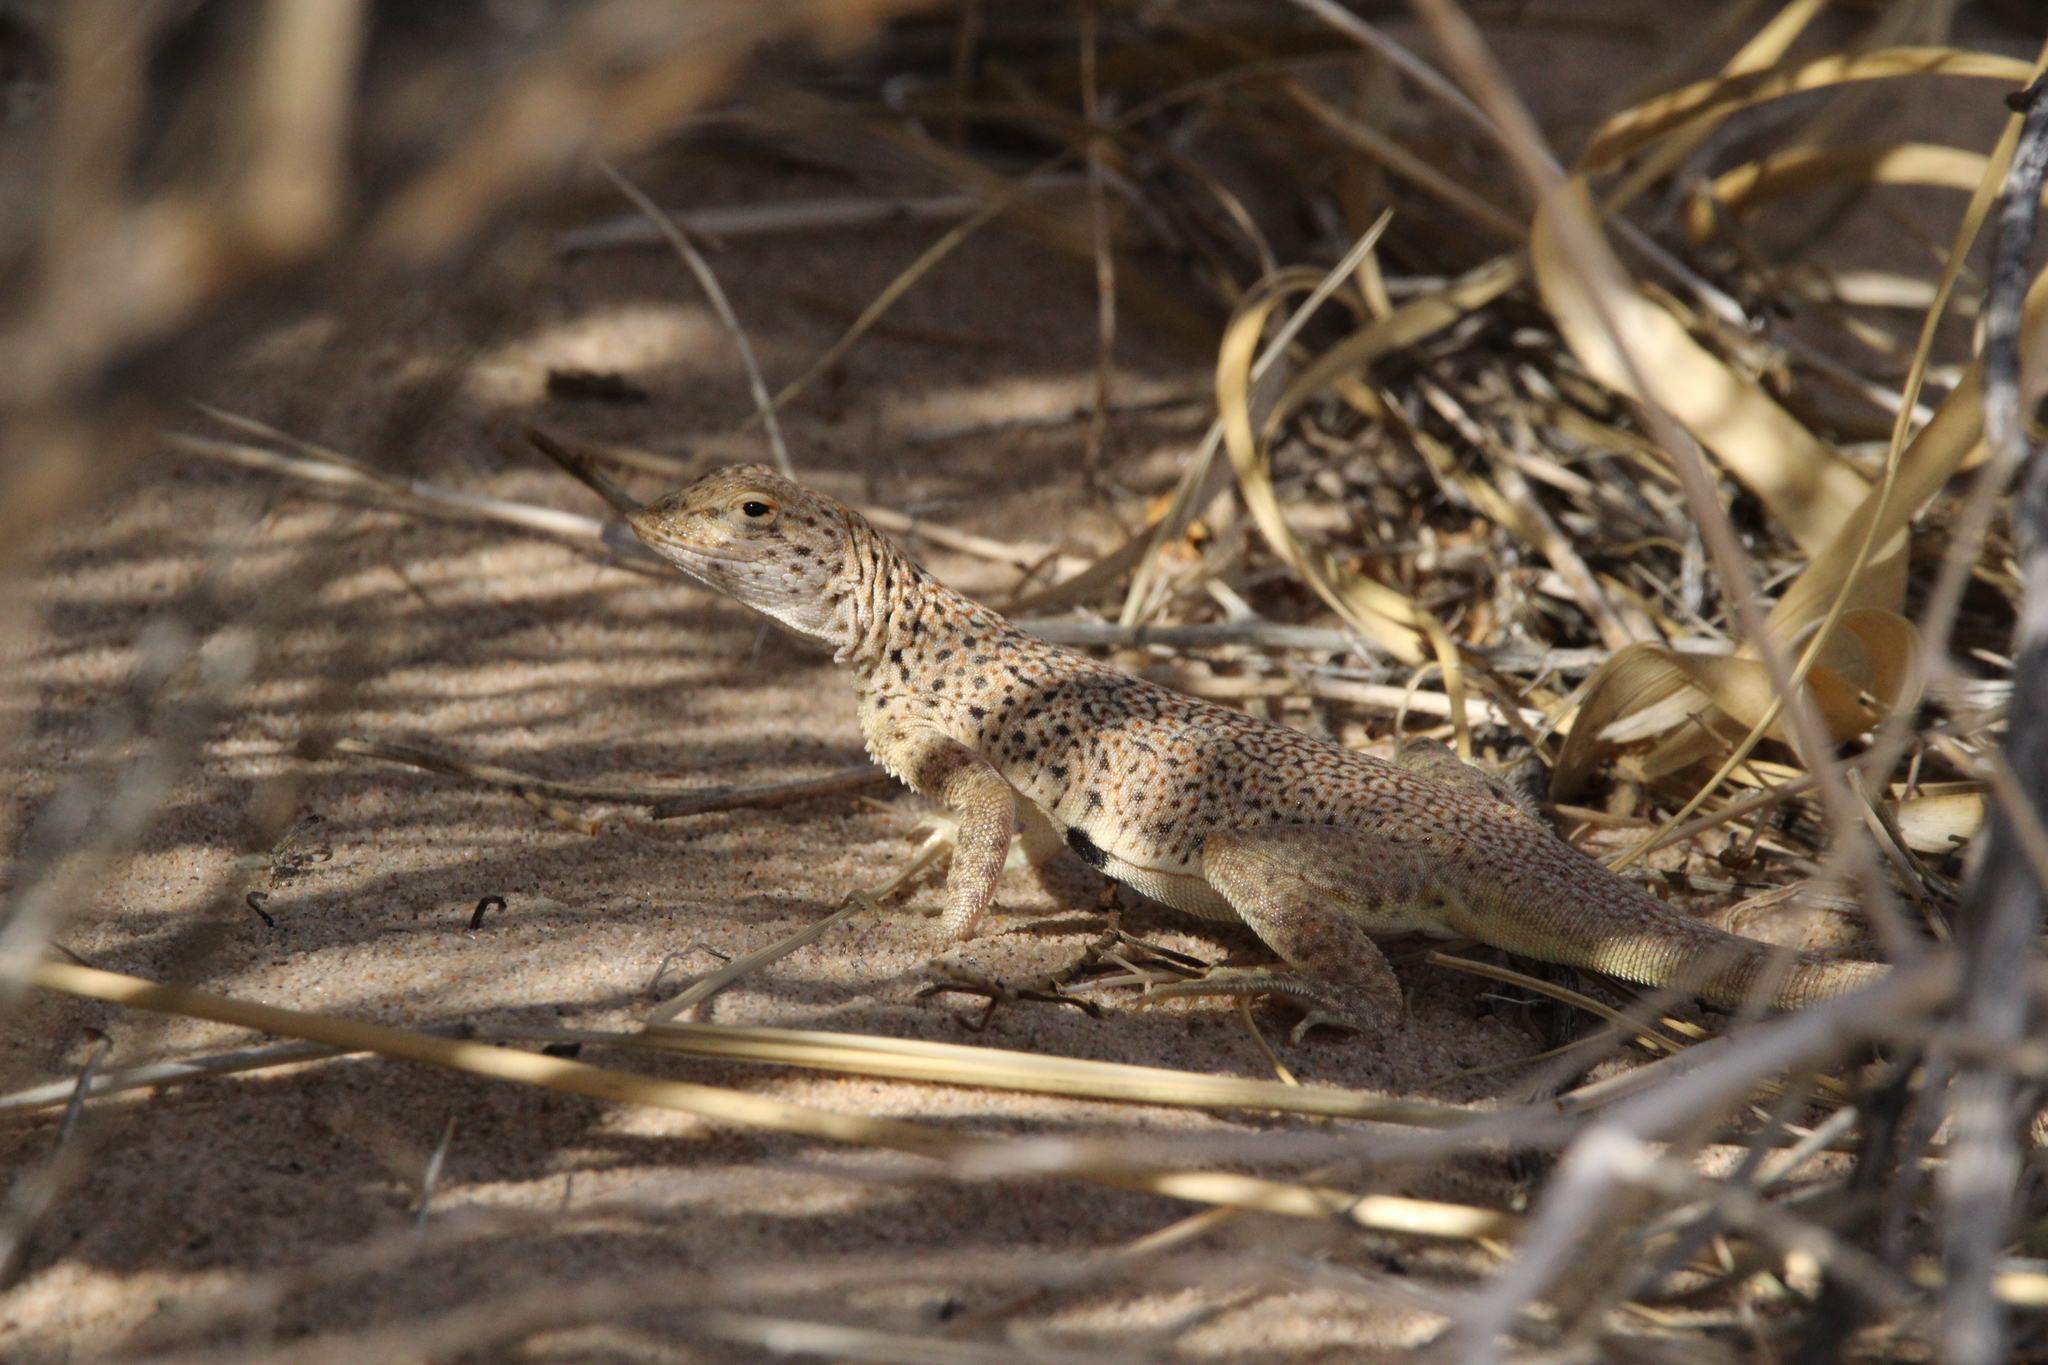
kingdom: Animalia
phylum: Chordata
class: Squamata
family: Phrynosomatidae
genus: Uma
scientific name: Uma scoparia
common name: Mojave fringe-toed lizard
